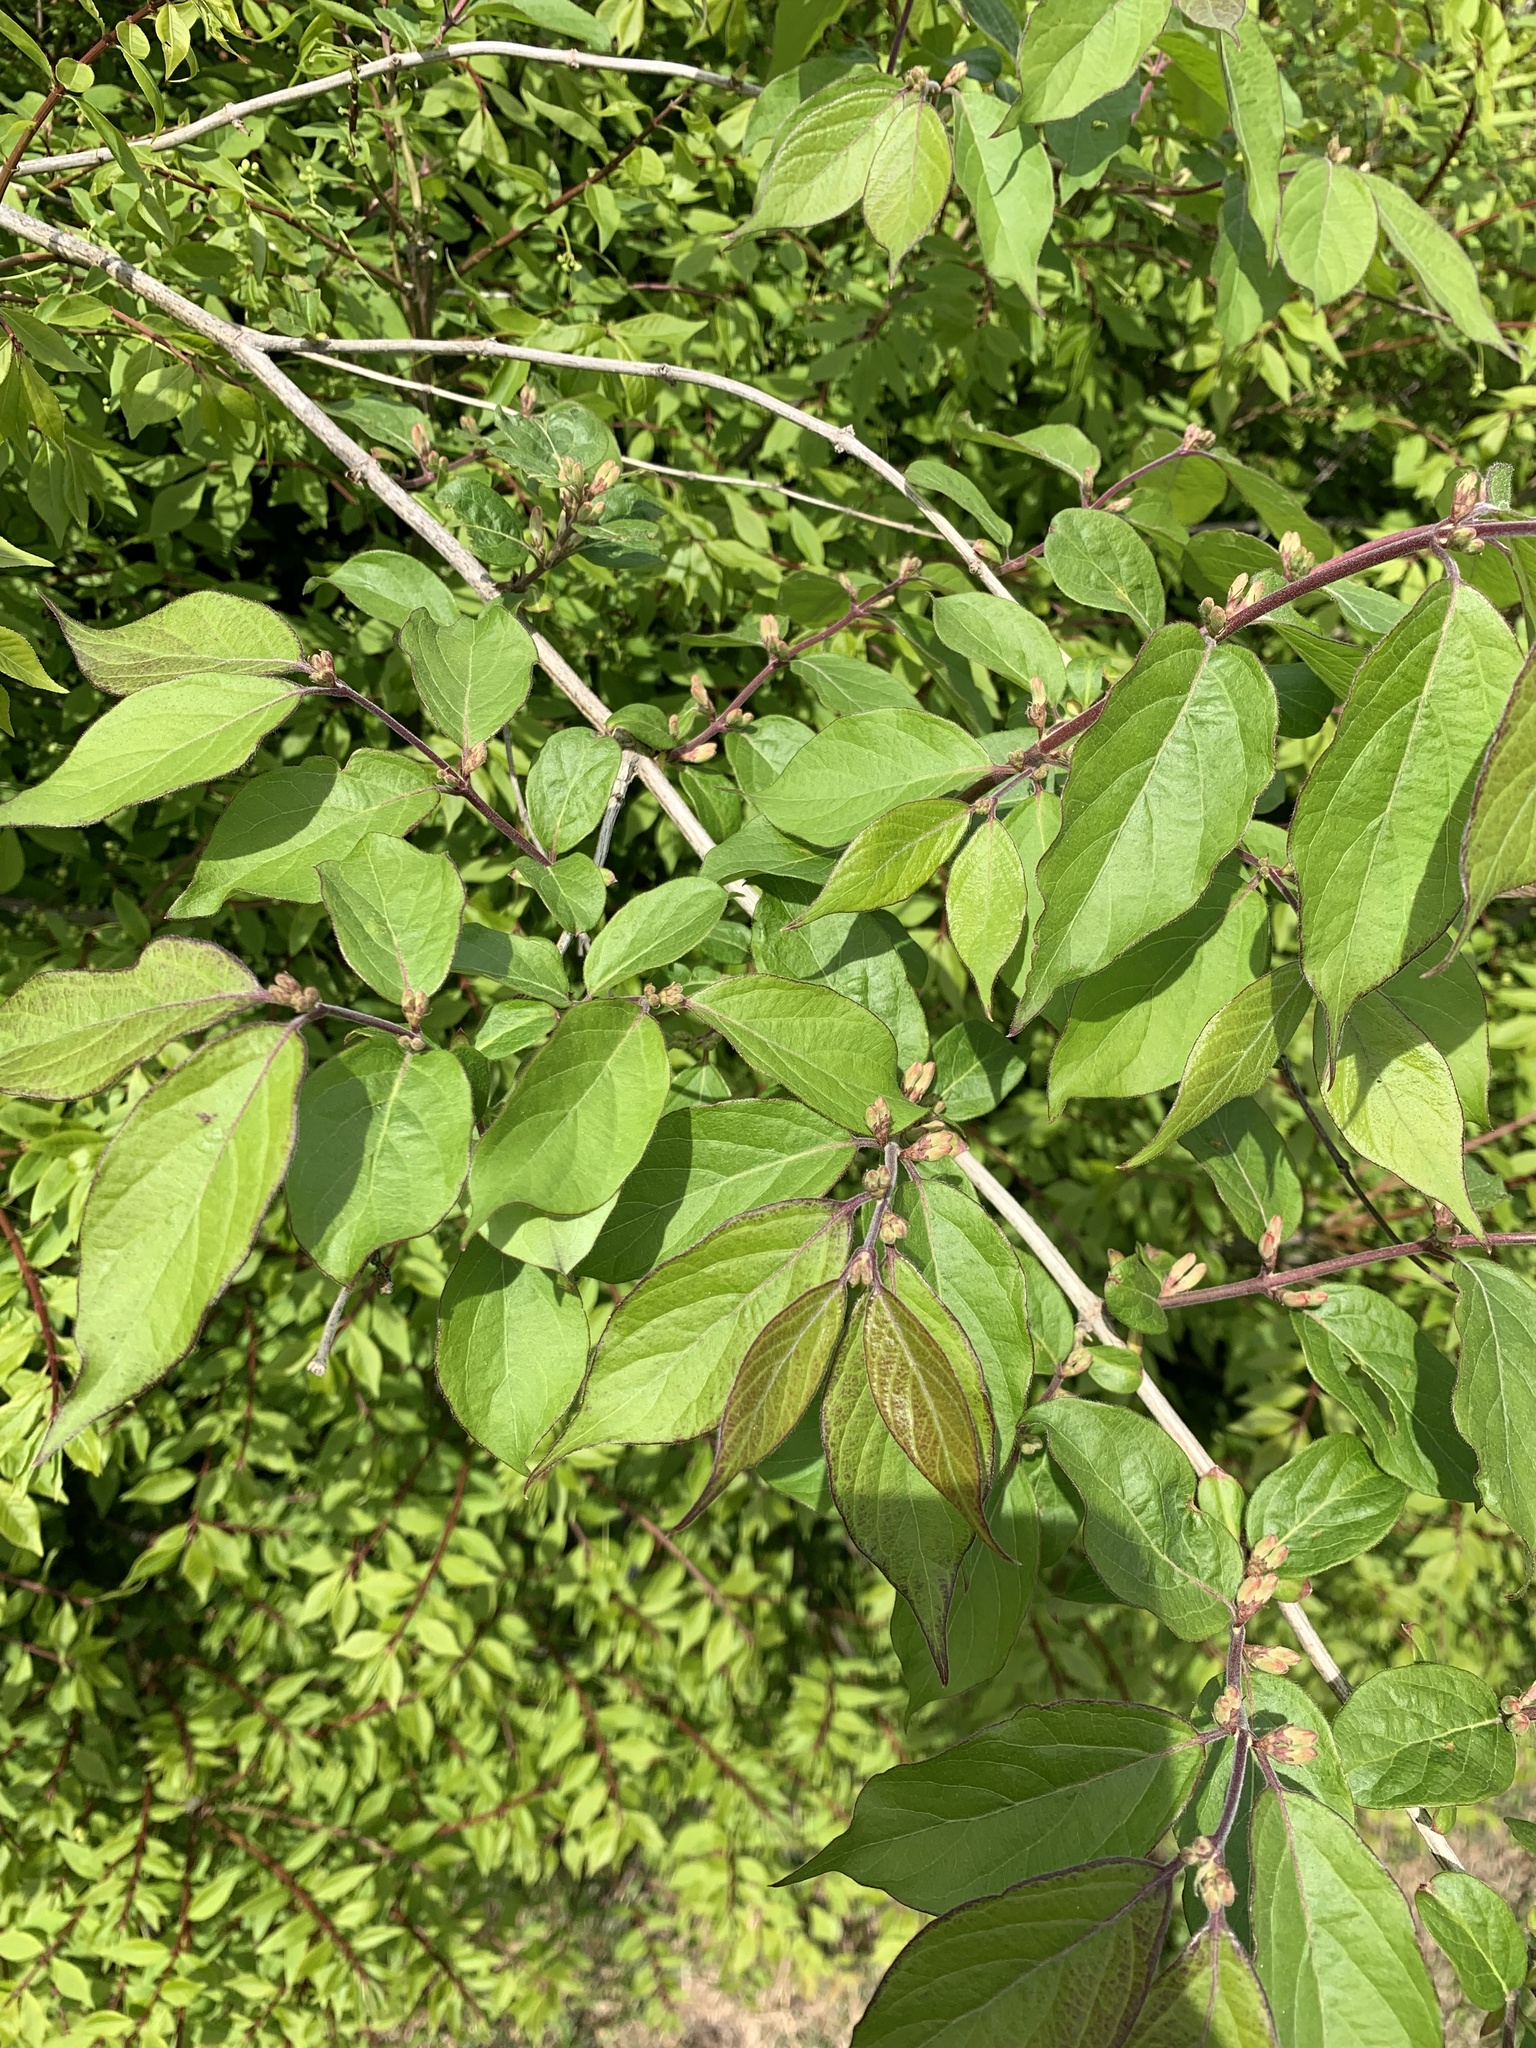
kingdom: Plantae
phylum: Tracheophyta
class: Magnoliopsida
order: Dipsacales
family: Caprifoliaceae
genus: Lonicera
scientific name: Lonicera maackii
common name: Amur honeysuckle
